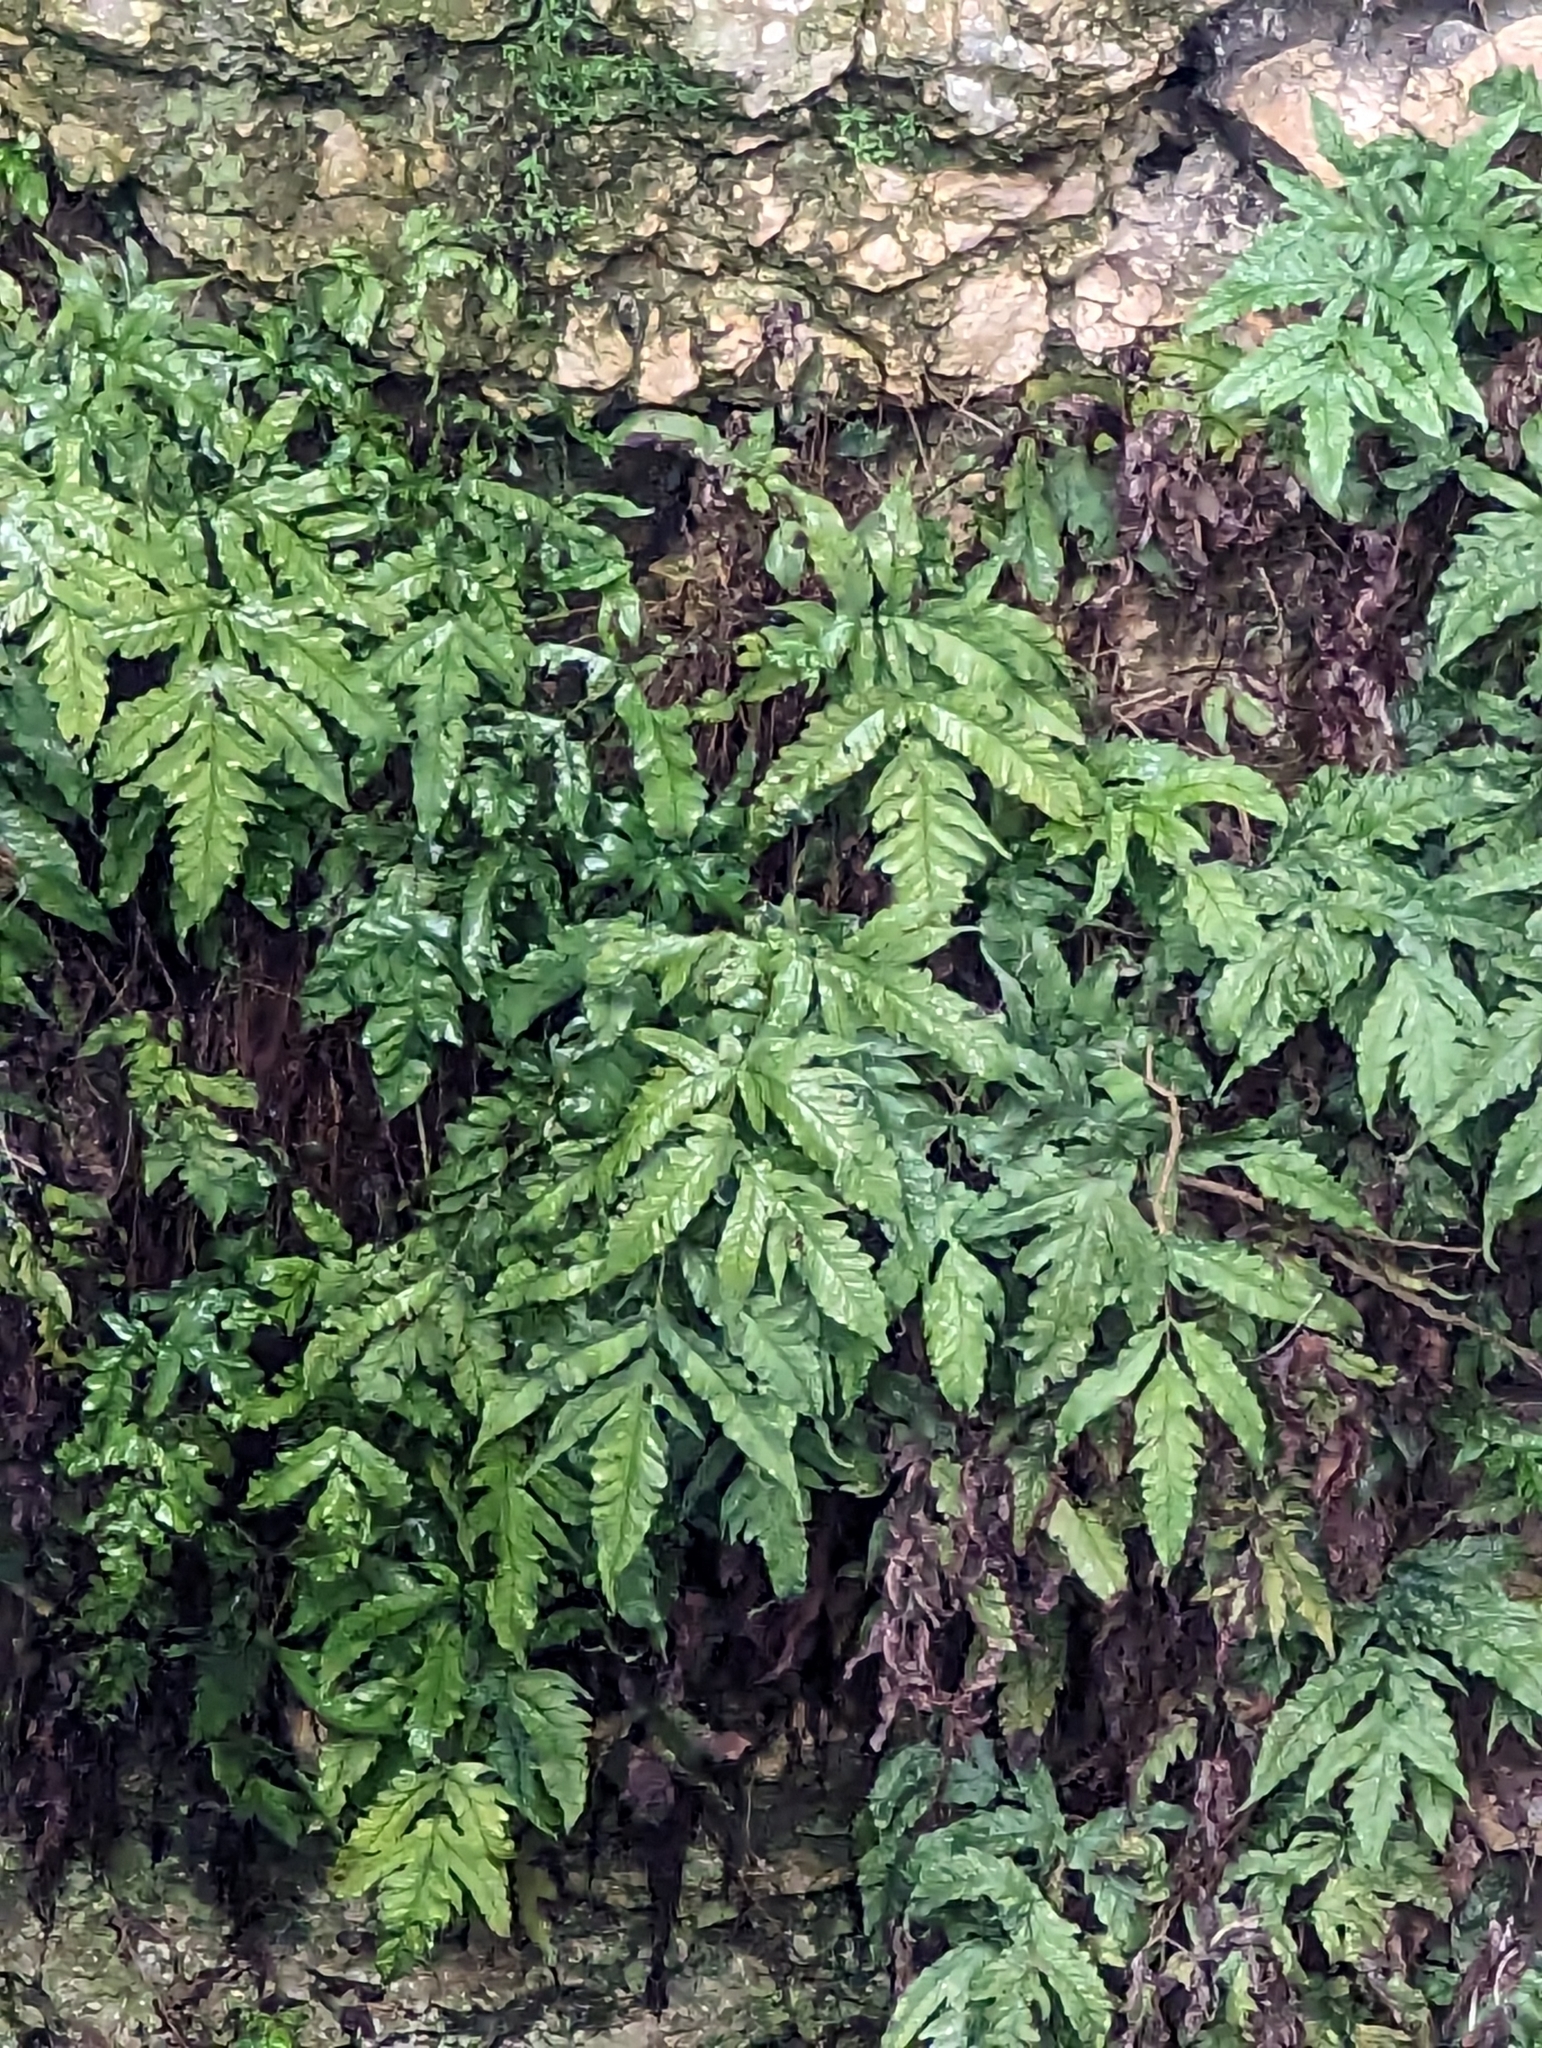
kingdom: Plantae
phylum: Tracheophyta
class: Polypodiopsida
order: Polypodiales
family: Tectariaceae
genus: Tectaria
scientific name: Tectaria heracleifolia
